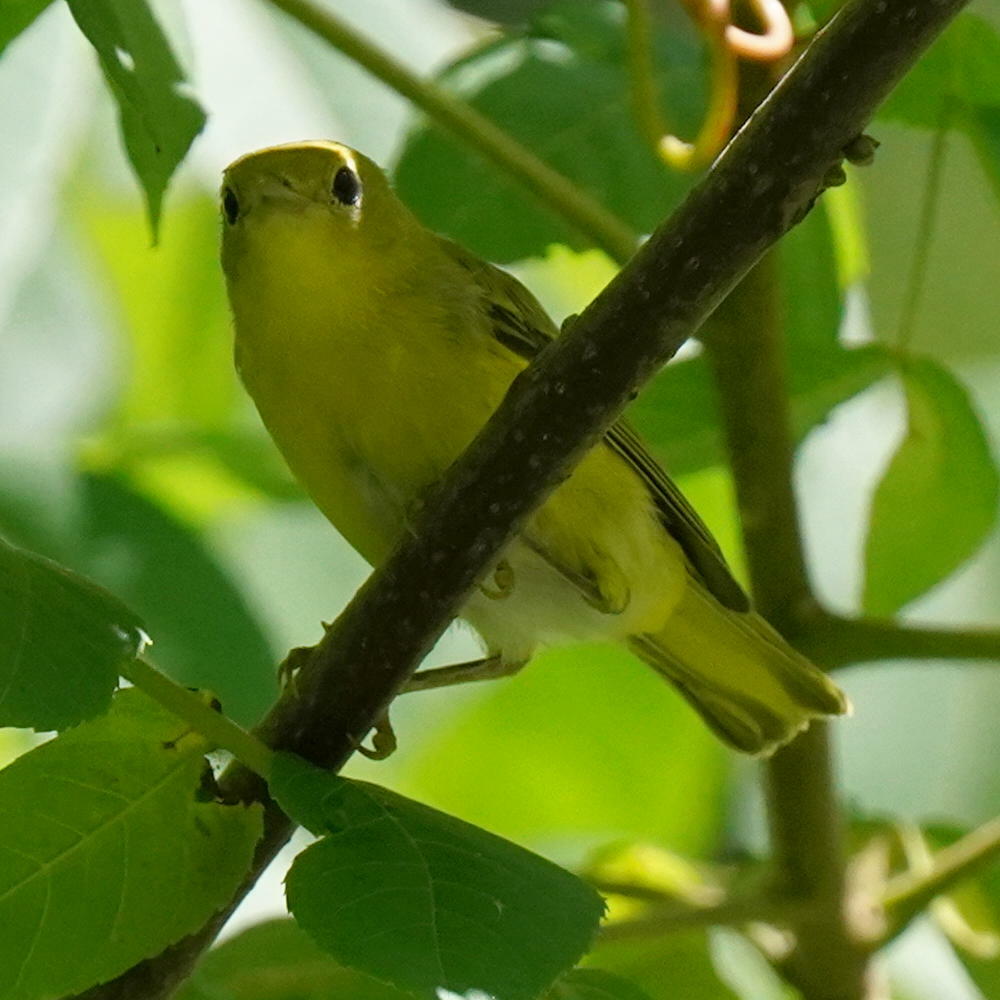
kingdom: Animalia
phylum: Chordata
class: Aves
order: Passeriformes
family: Parulidae
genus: Setophaga
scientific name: Setophaga petechia
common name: Yellow warbler
